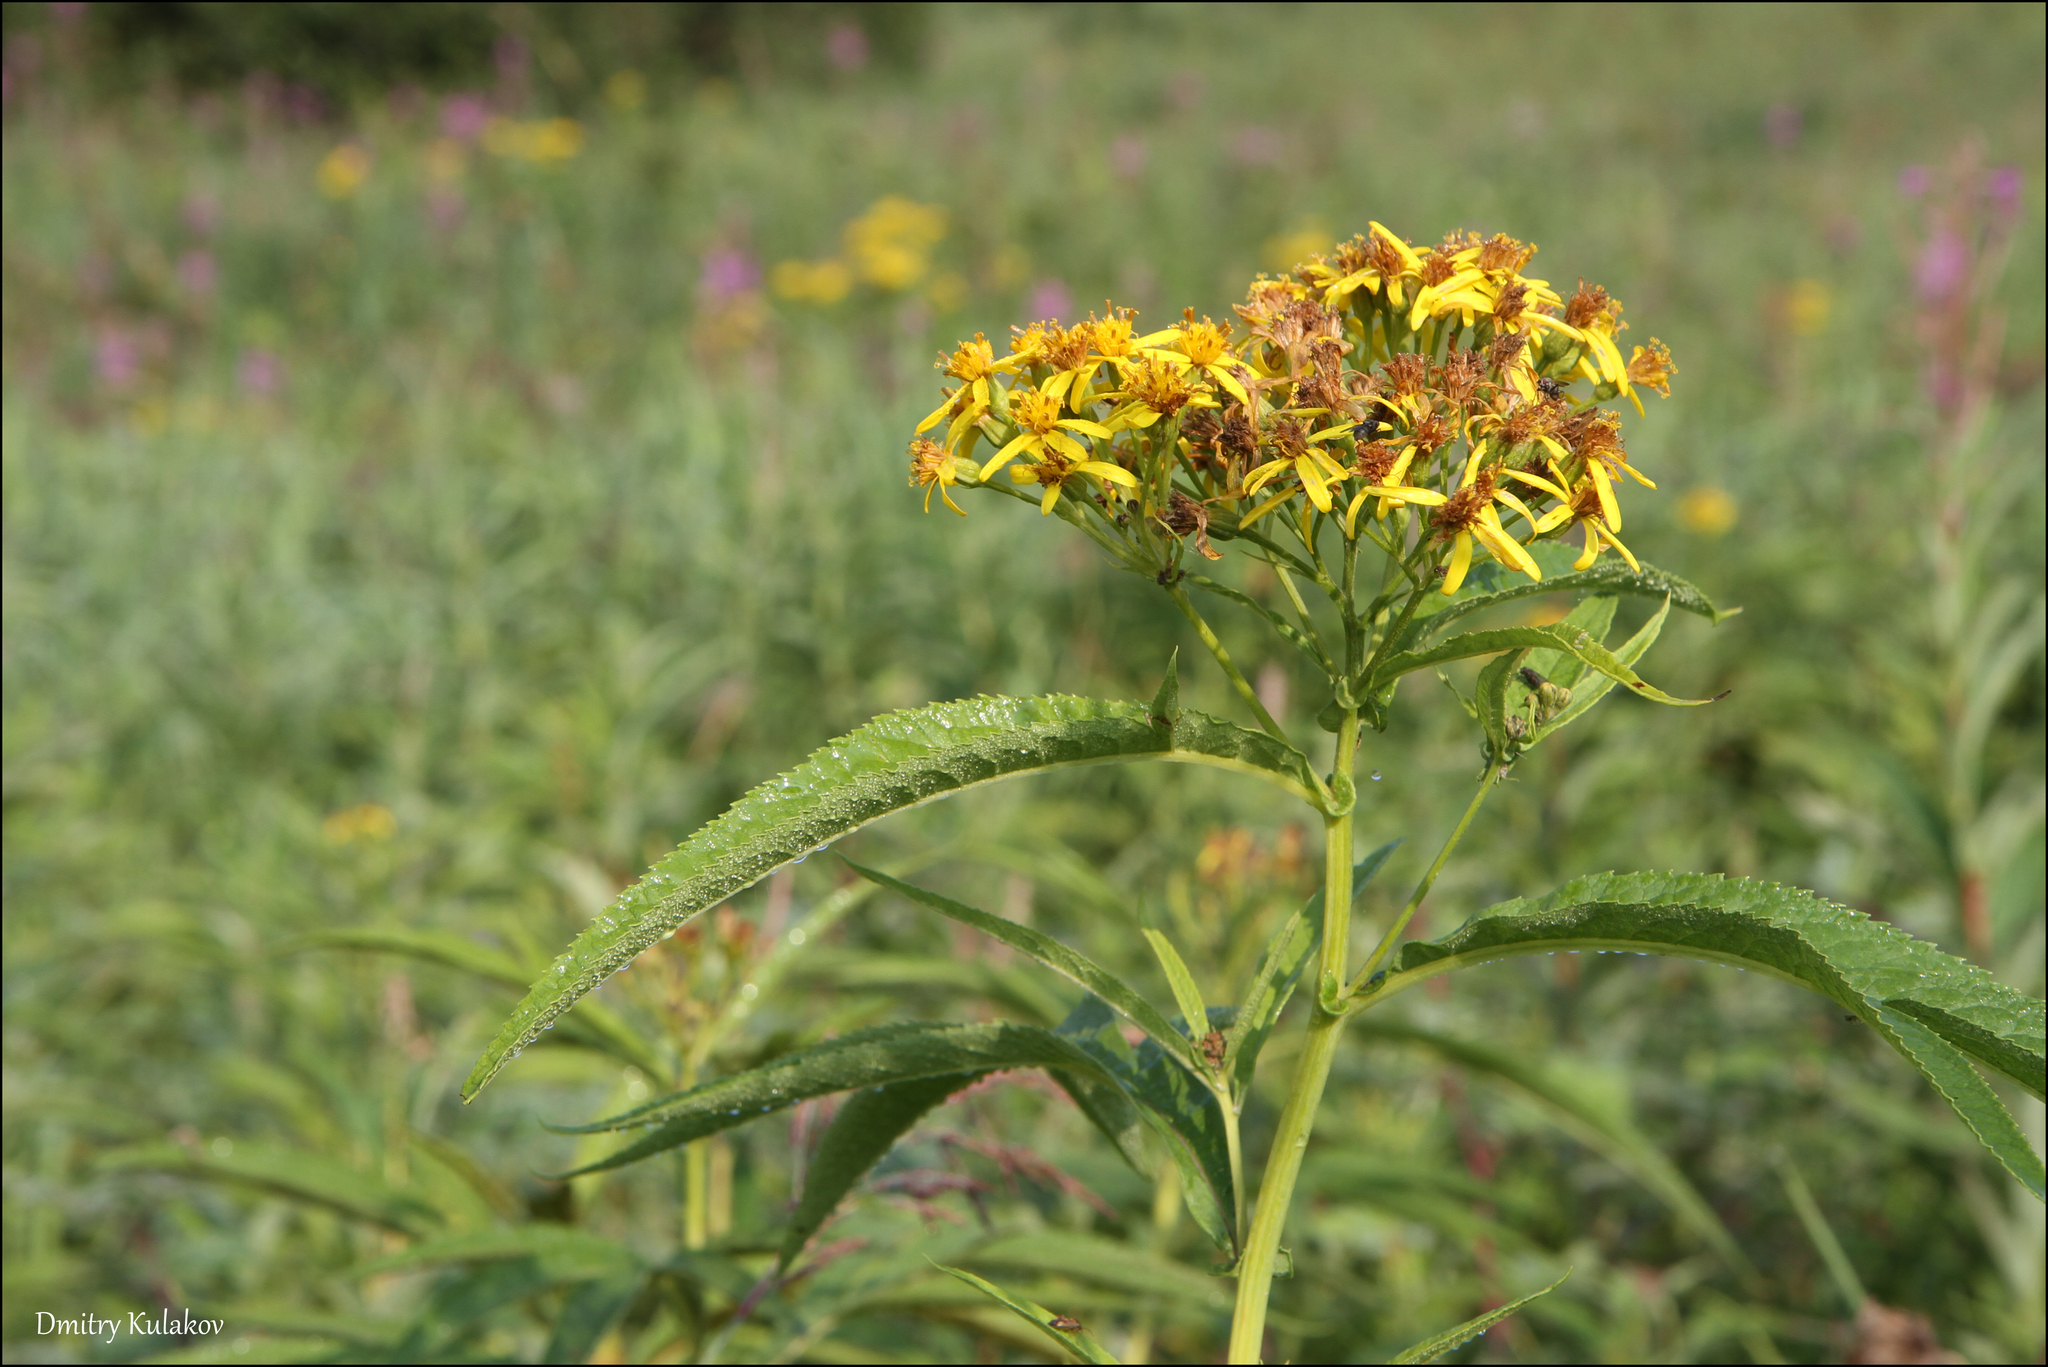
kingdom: Plantae
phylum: Tracheophyta
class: Magnoliopsida
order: Asterales
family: Asteraceae
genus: Jacobaea
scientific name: Jacobaea cannabifolia
